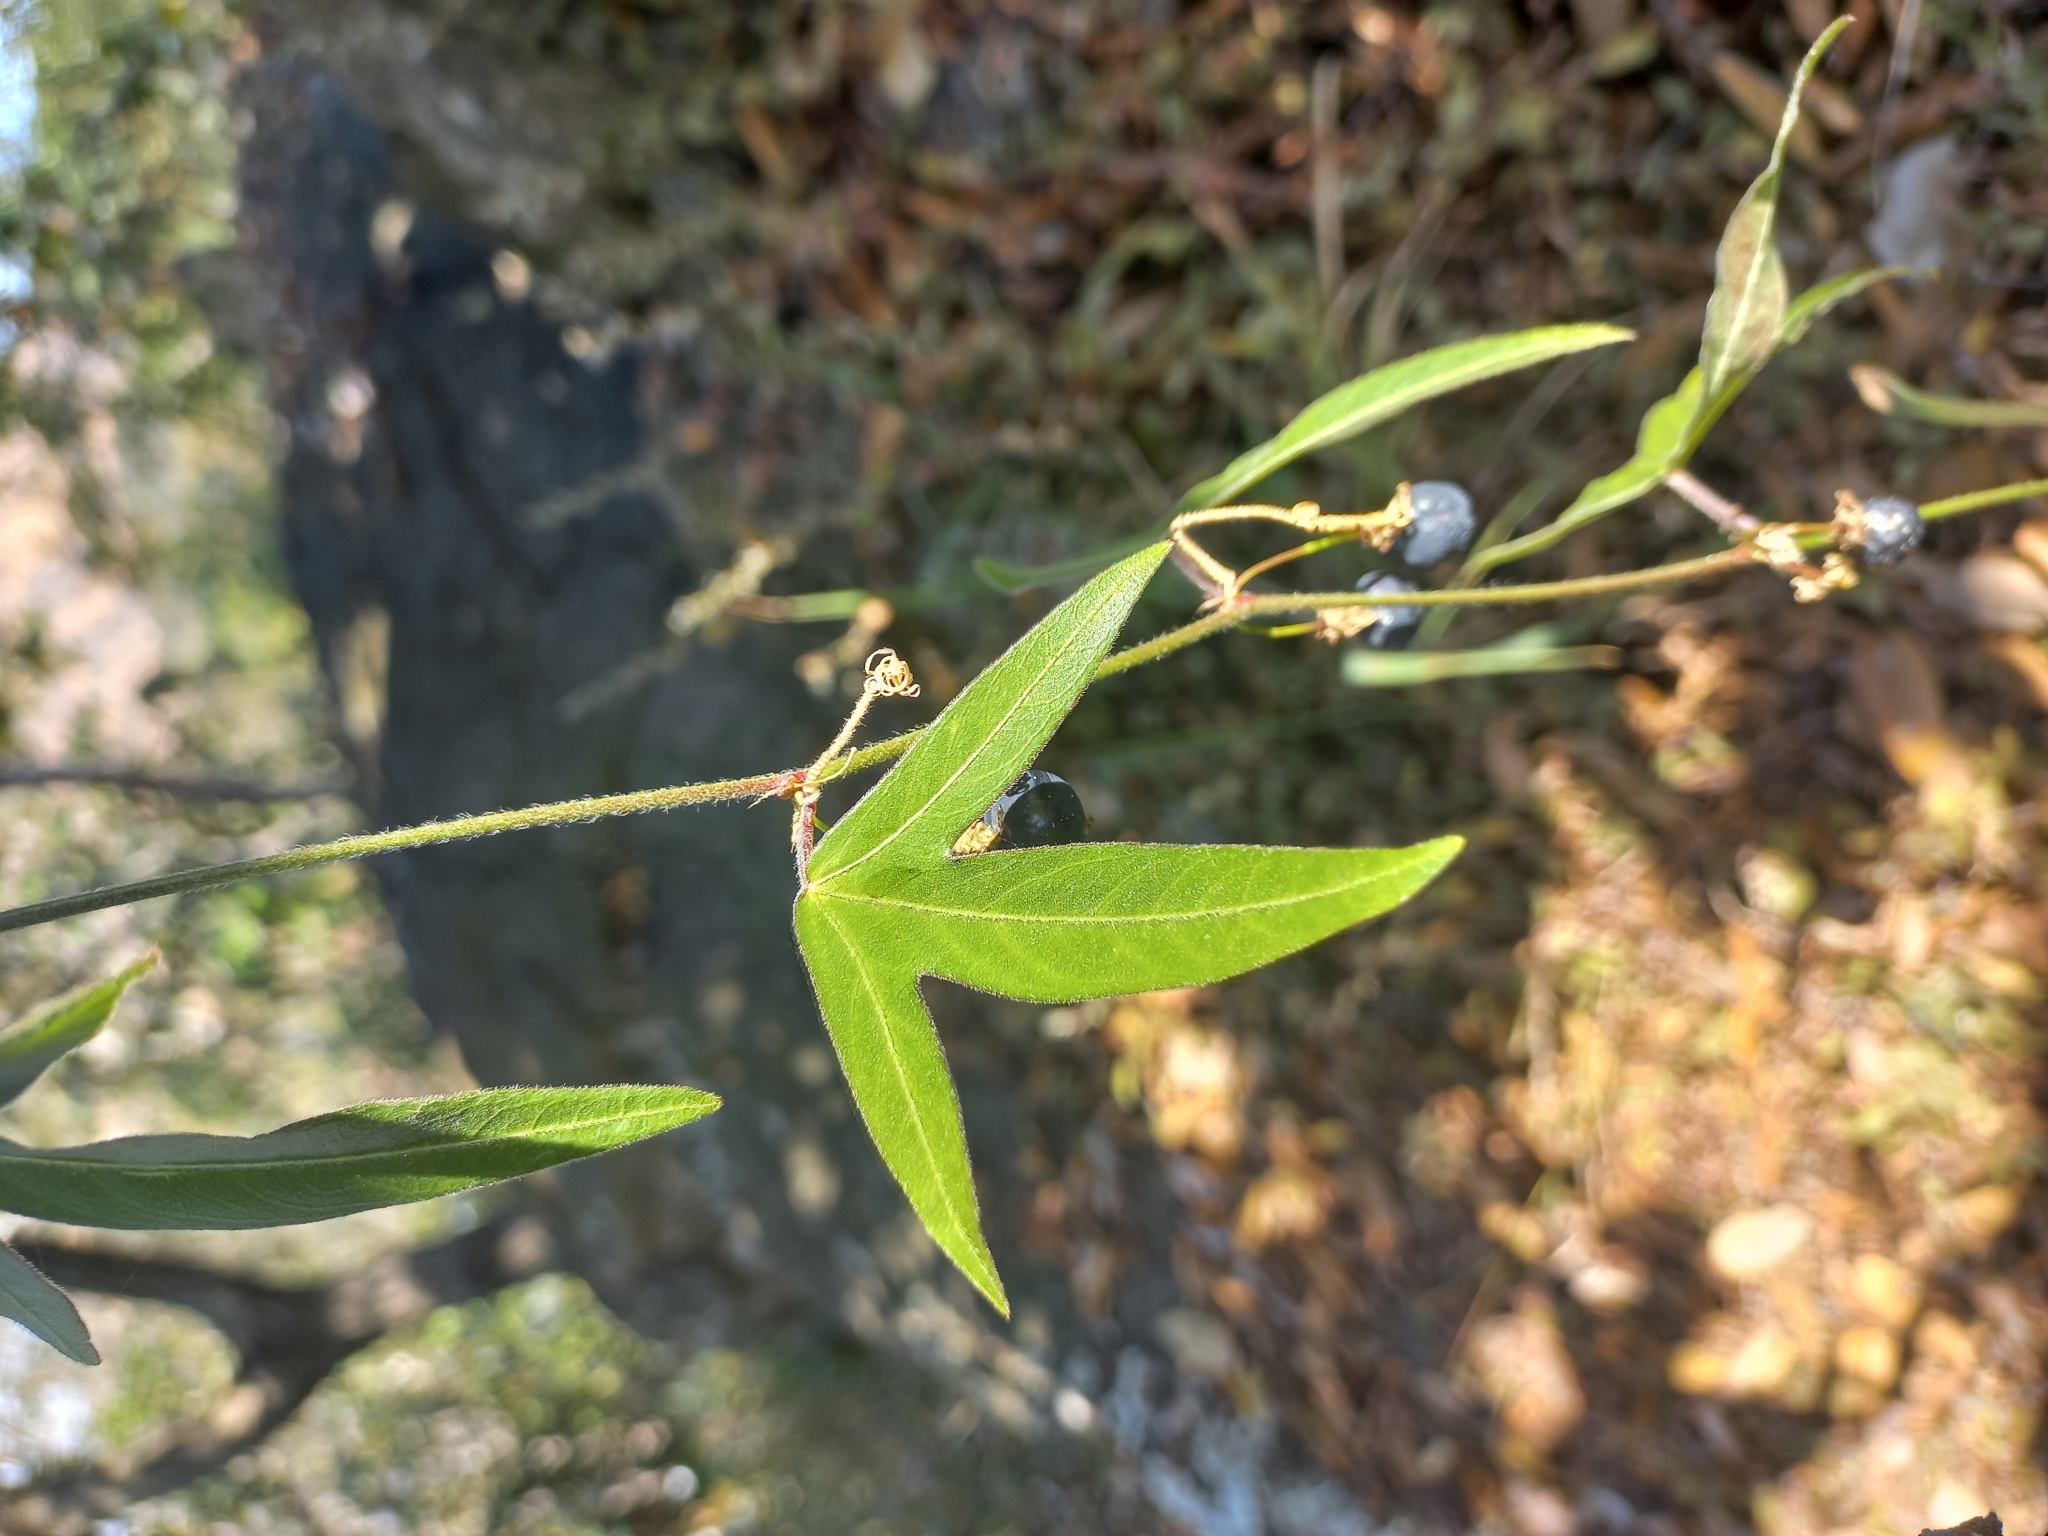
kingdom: Plantae
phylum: Tracheophyta
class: Magnoliopsida
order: Malpighiales
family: Passifloraceae
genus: Passiflora
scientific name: Passiflora suberosa
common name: Wild passionfruit
